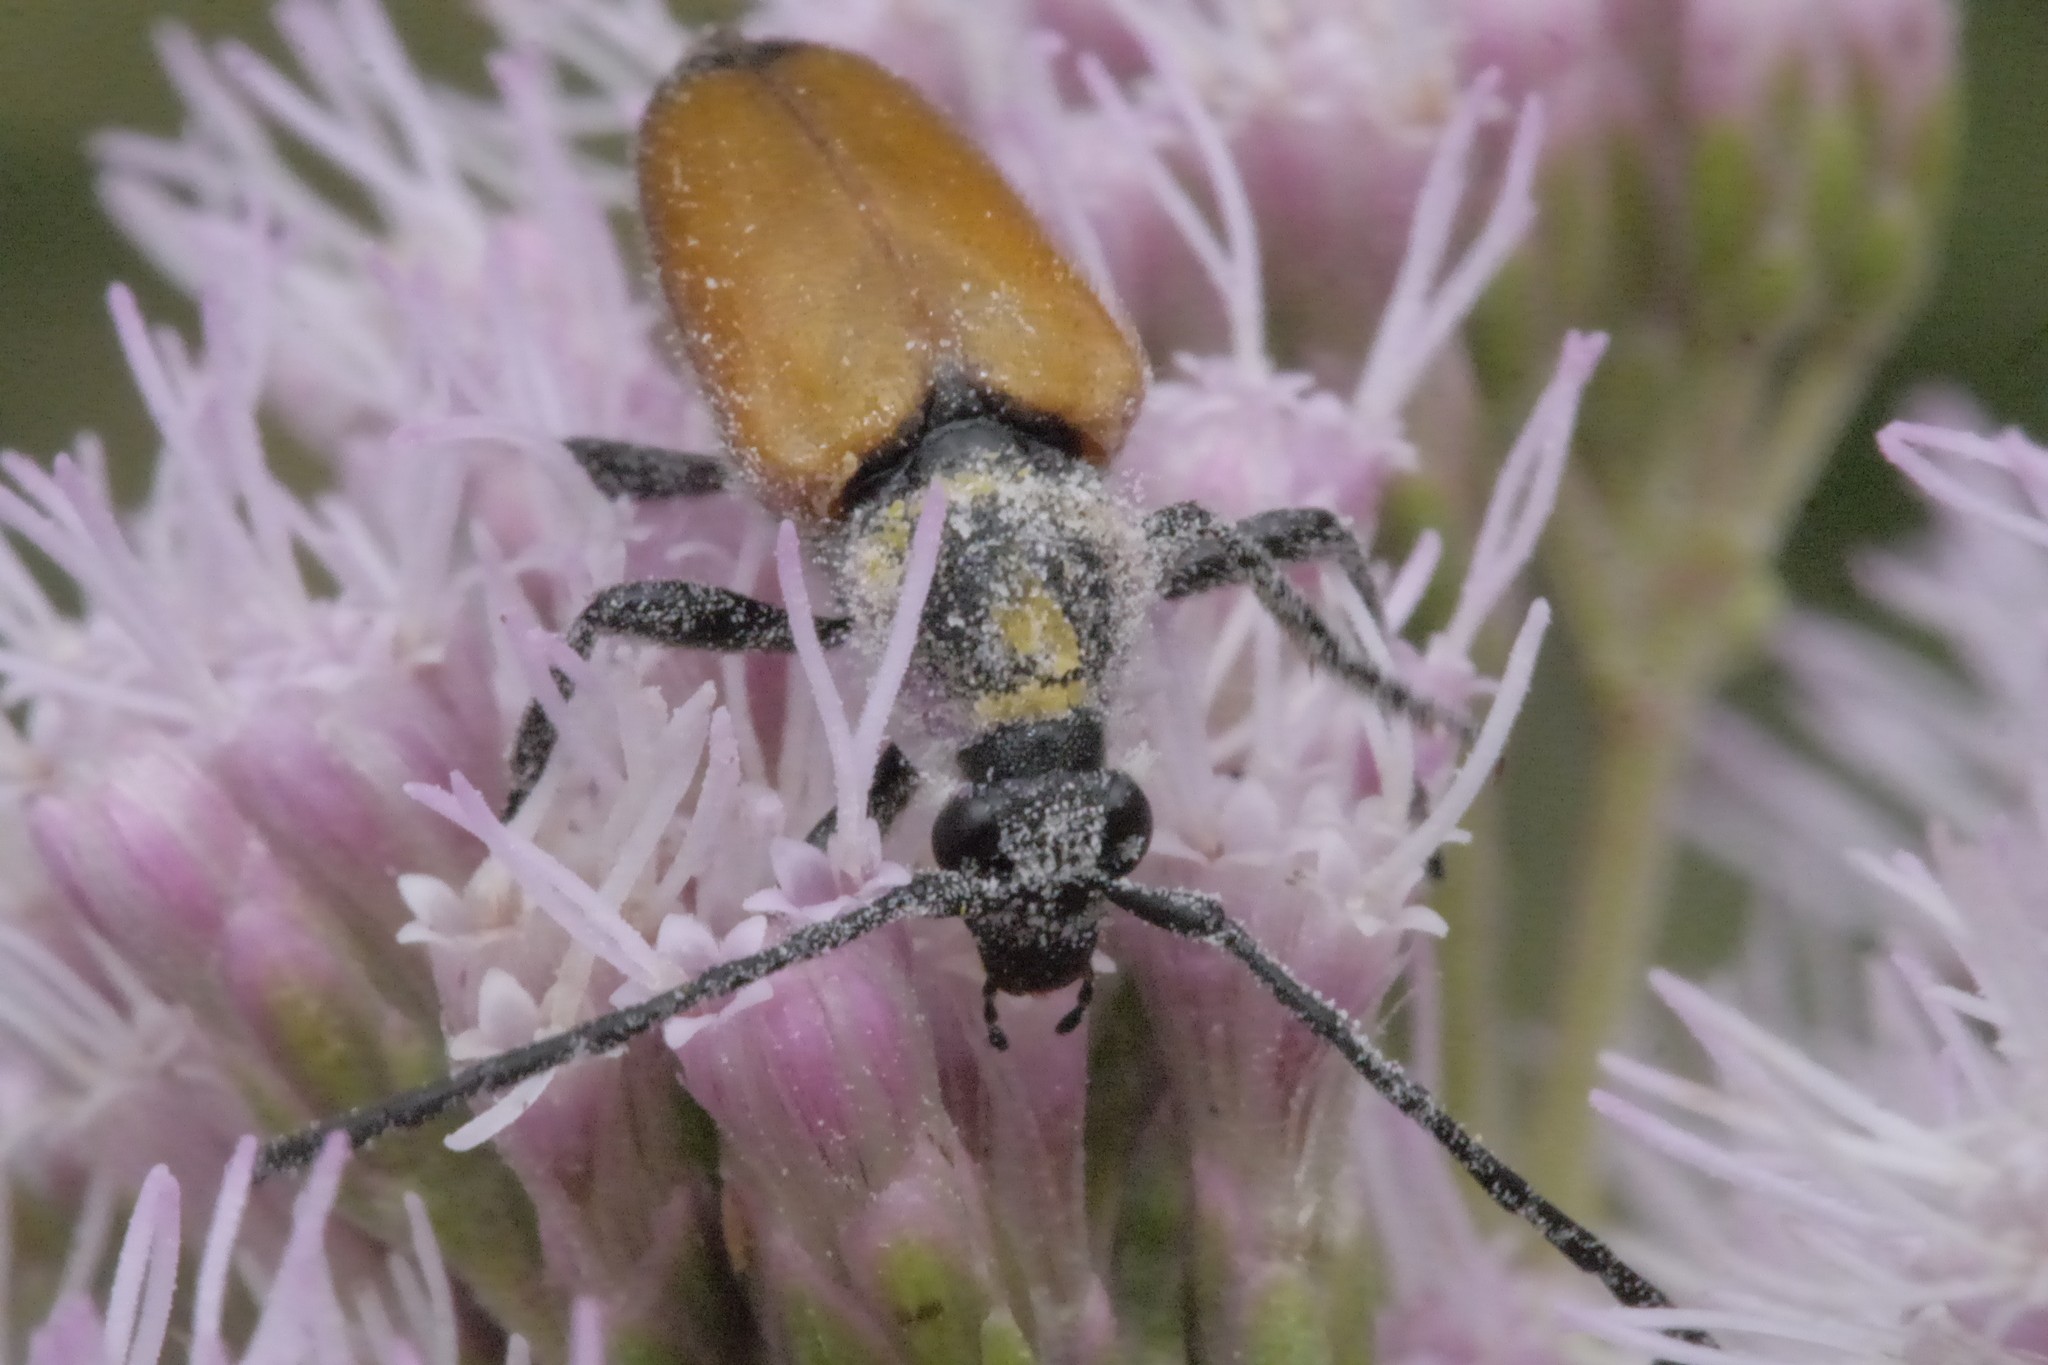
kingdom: Animalia
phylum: Arthropoda
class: Insecta
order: Coleoptera
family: Cerambycidae
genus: Paracorymbia
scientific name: Paracorymbia fulva
